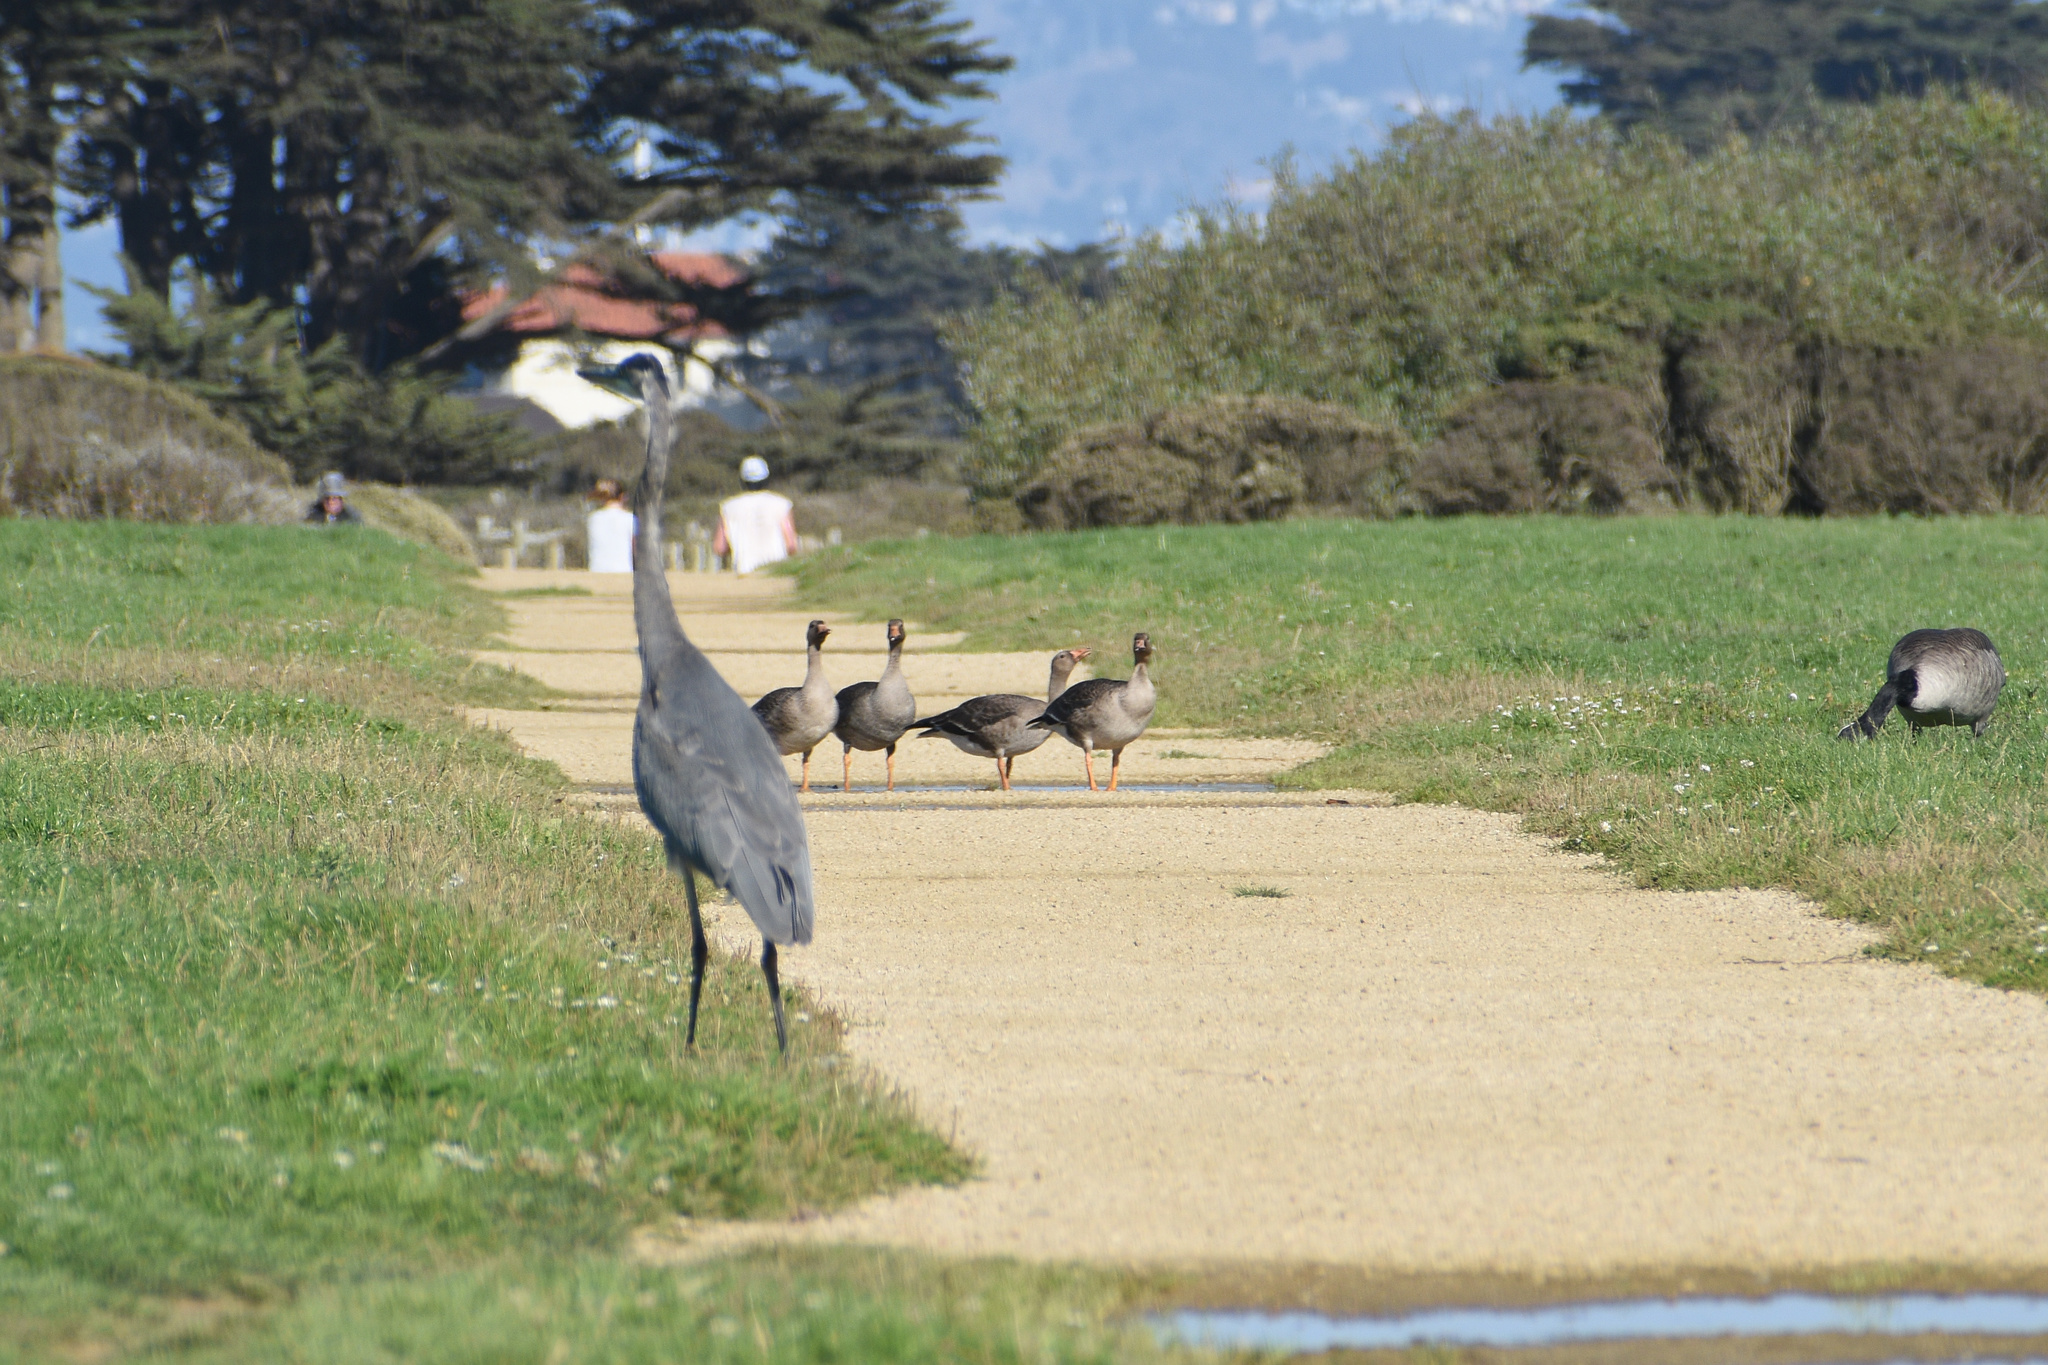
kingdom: Animalia
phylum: Chordata
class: Aves
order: Anseriformes
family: Anatidae
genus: Anser
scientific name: Anser albifrons
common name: Greater white-fronted goose
